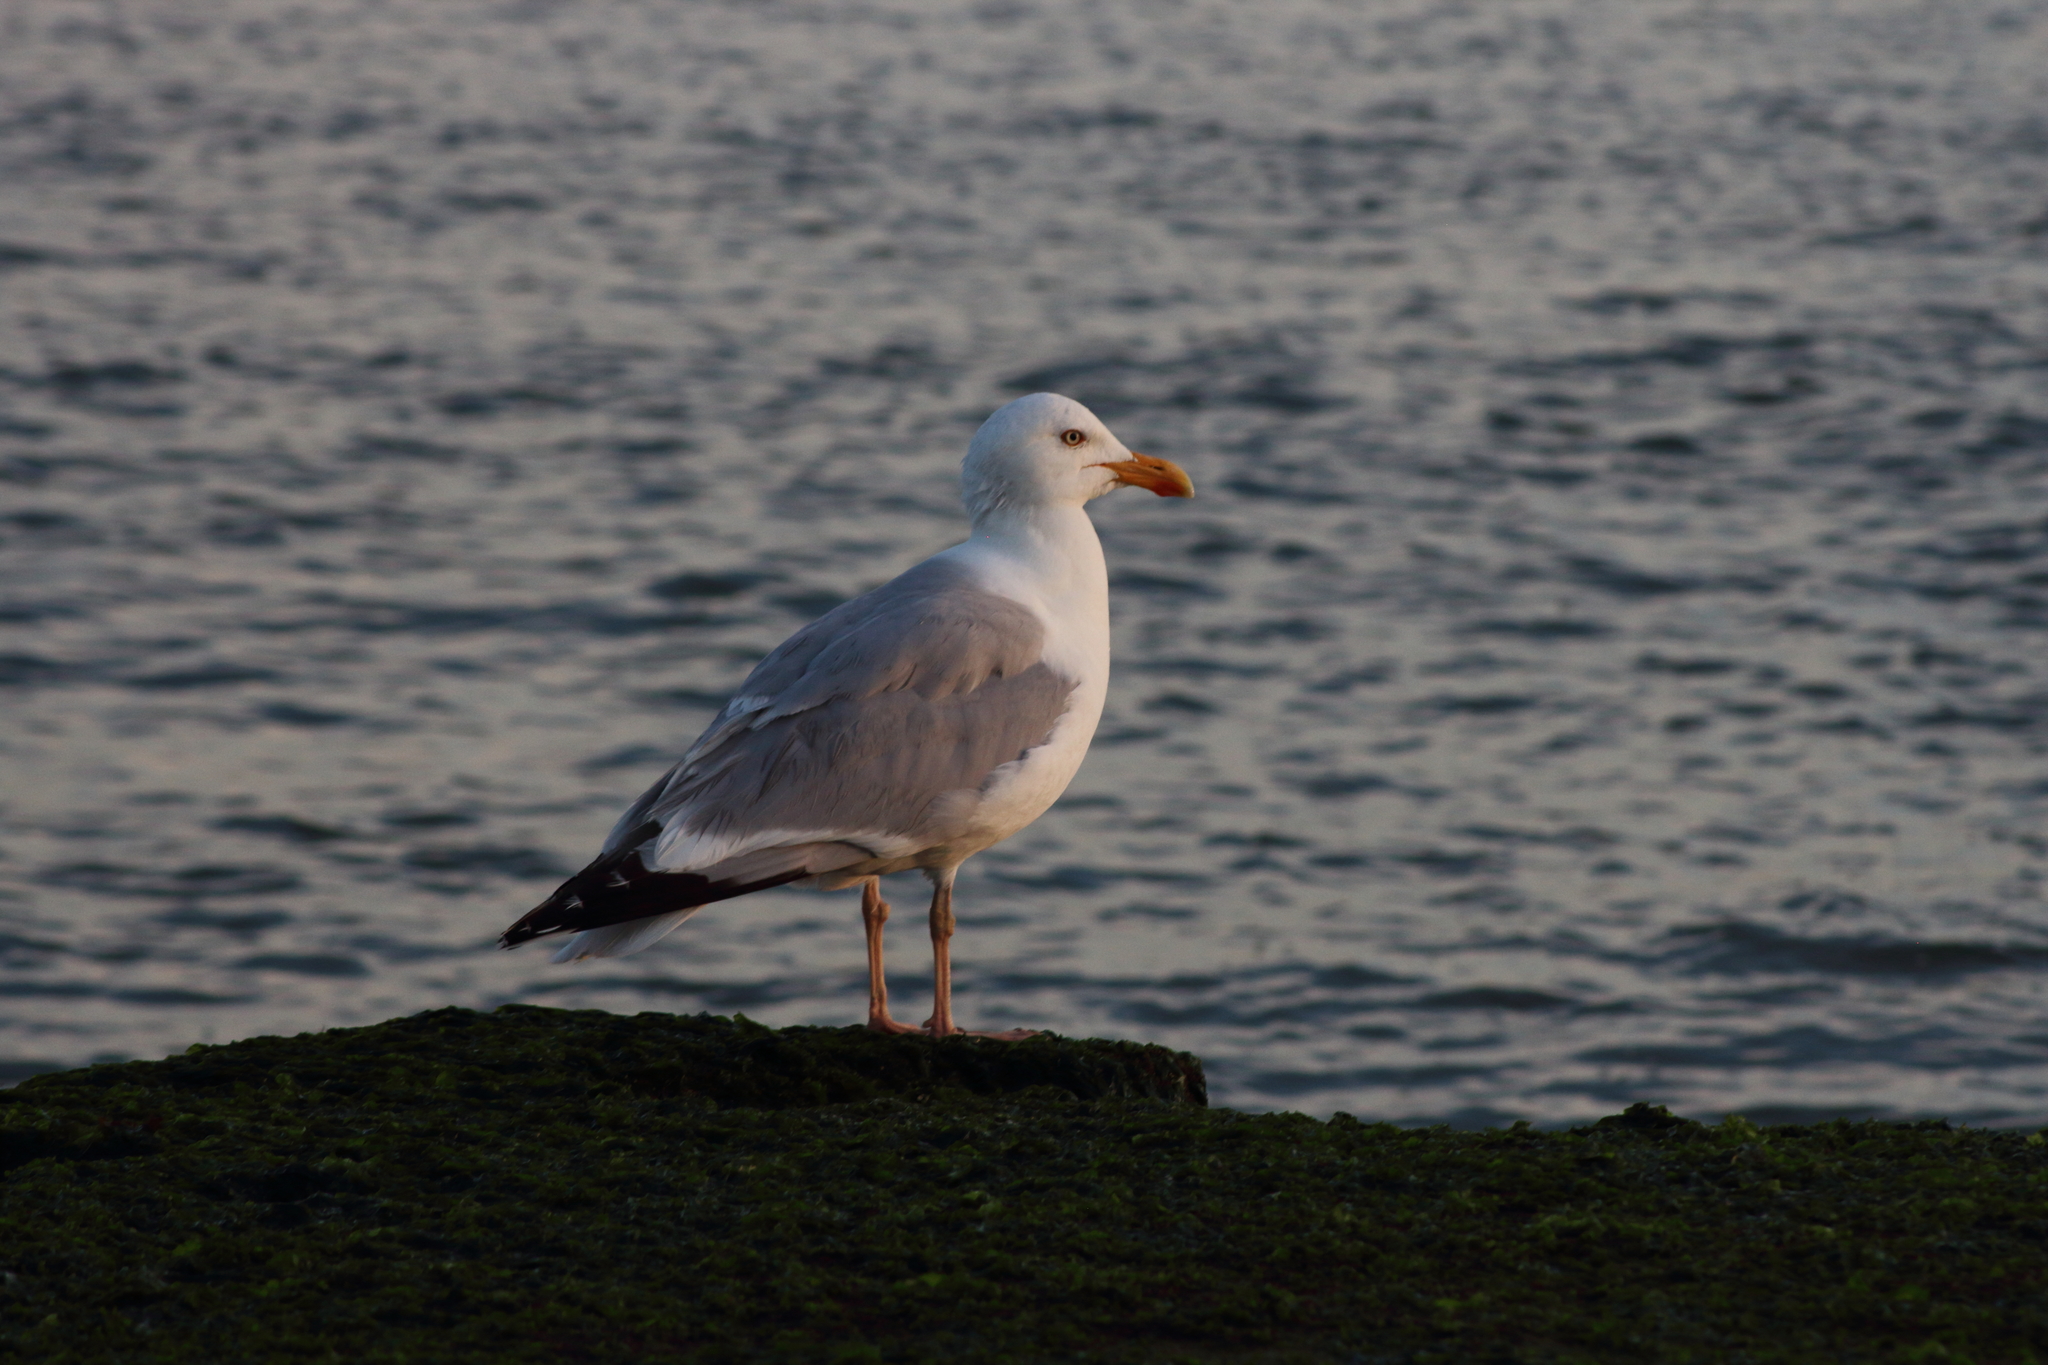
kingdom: Animalia
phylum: Chordata
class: Aves
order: Charadriiformes
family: Laridae
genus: Larus
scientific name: Larus argentatus
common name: Herring gull
